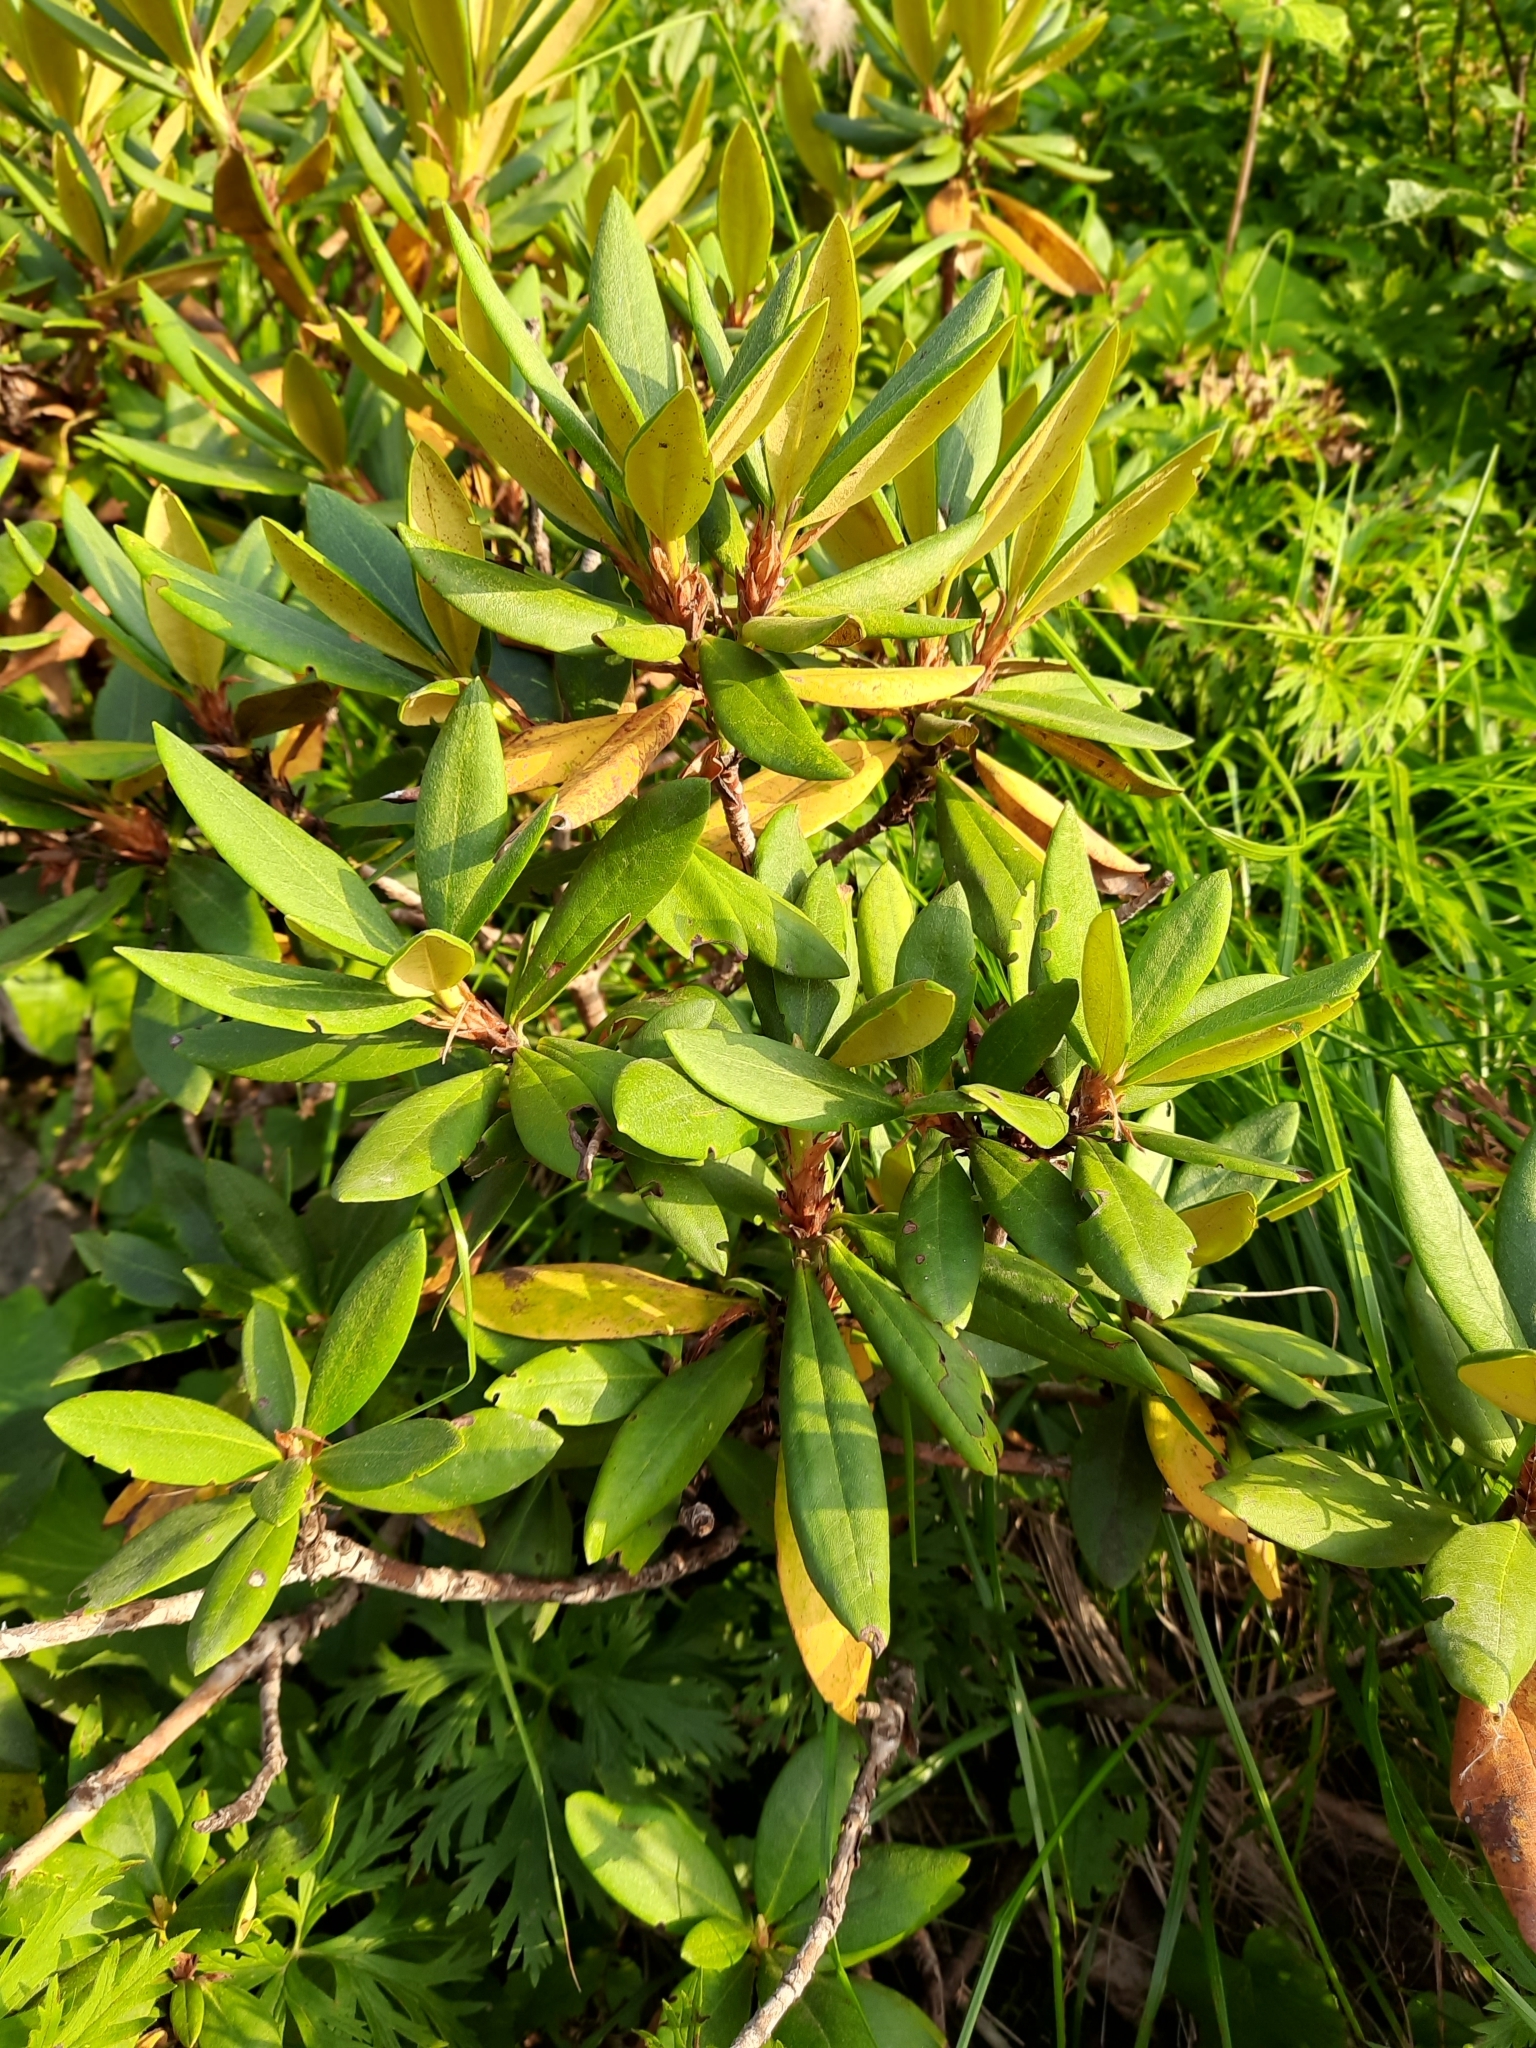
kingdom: Plantae
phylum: Tracheophyta
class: Magnoliopsida
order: Ericales
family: Ericaceae
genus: Rhododendron
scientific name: Rhododendron caucasicum
